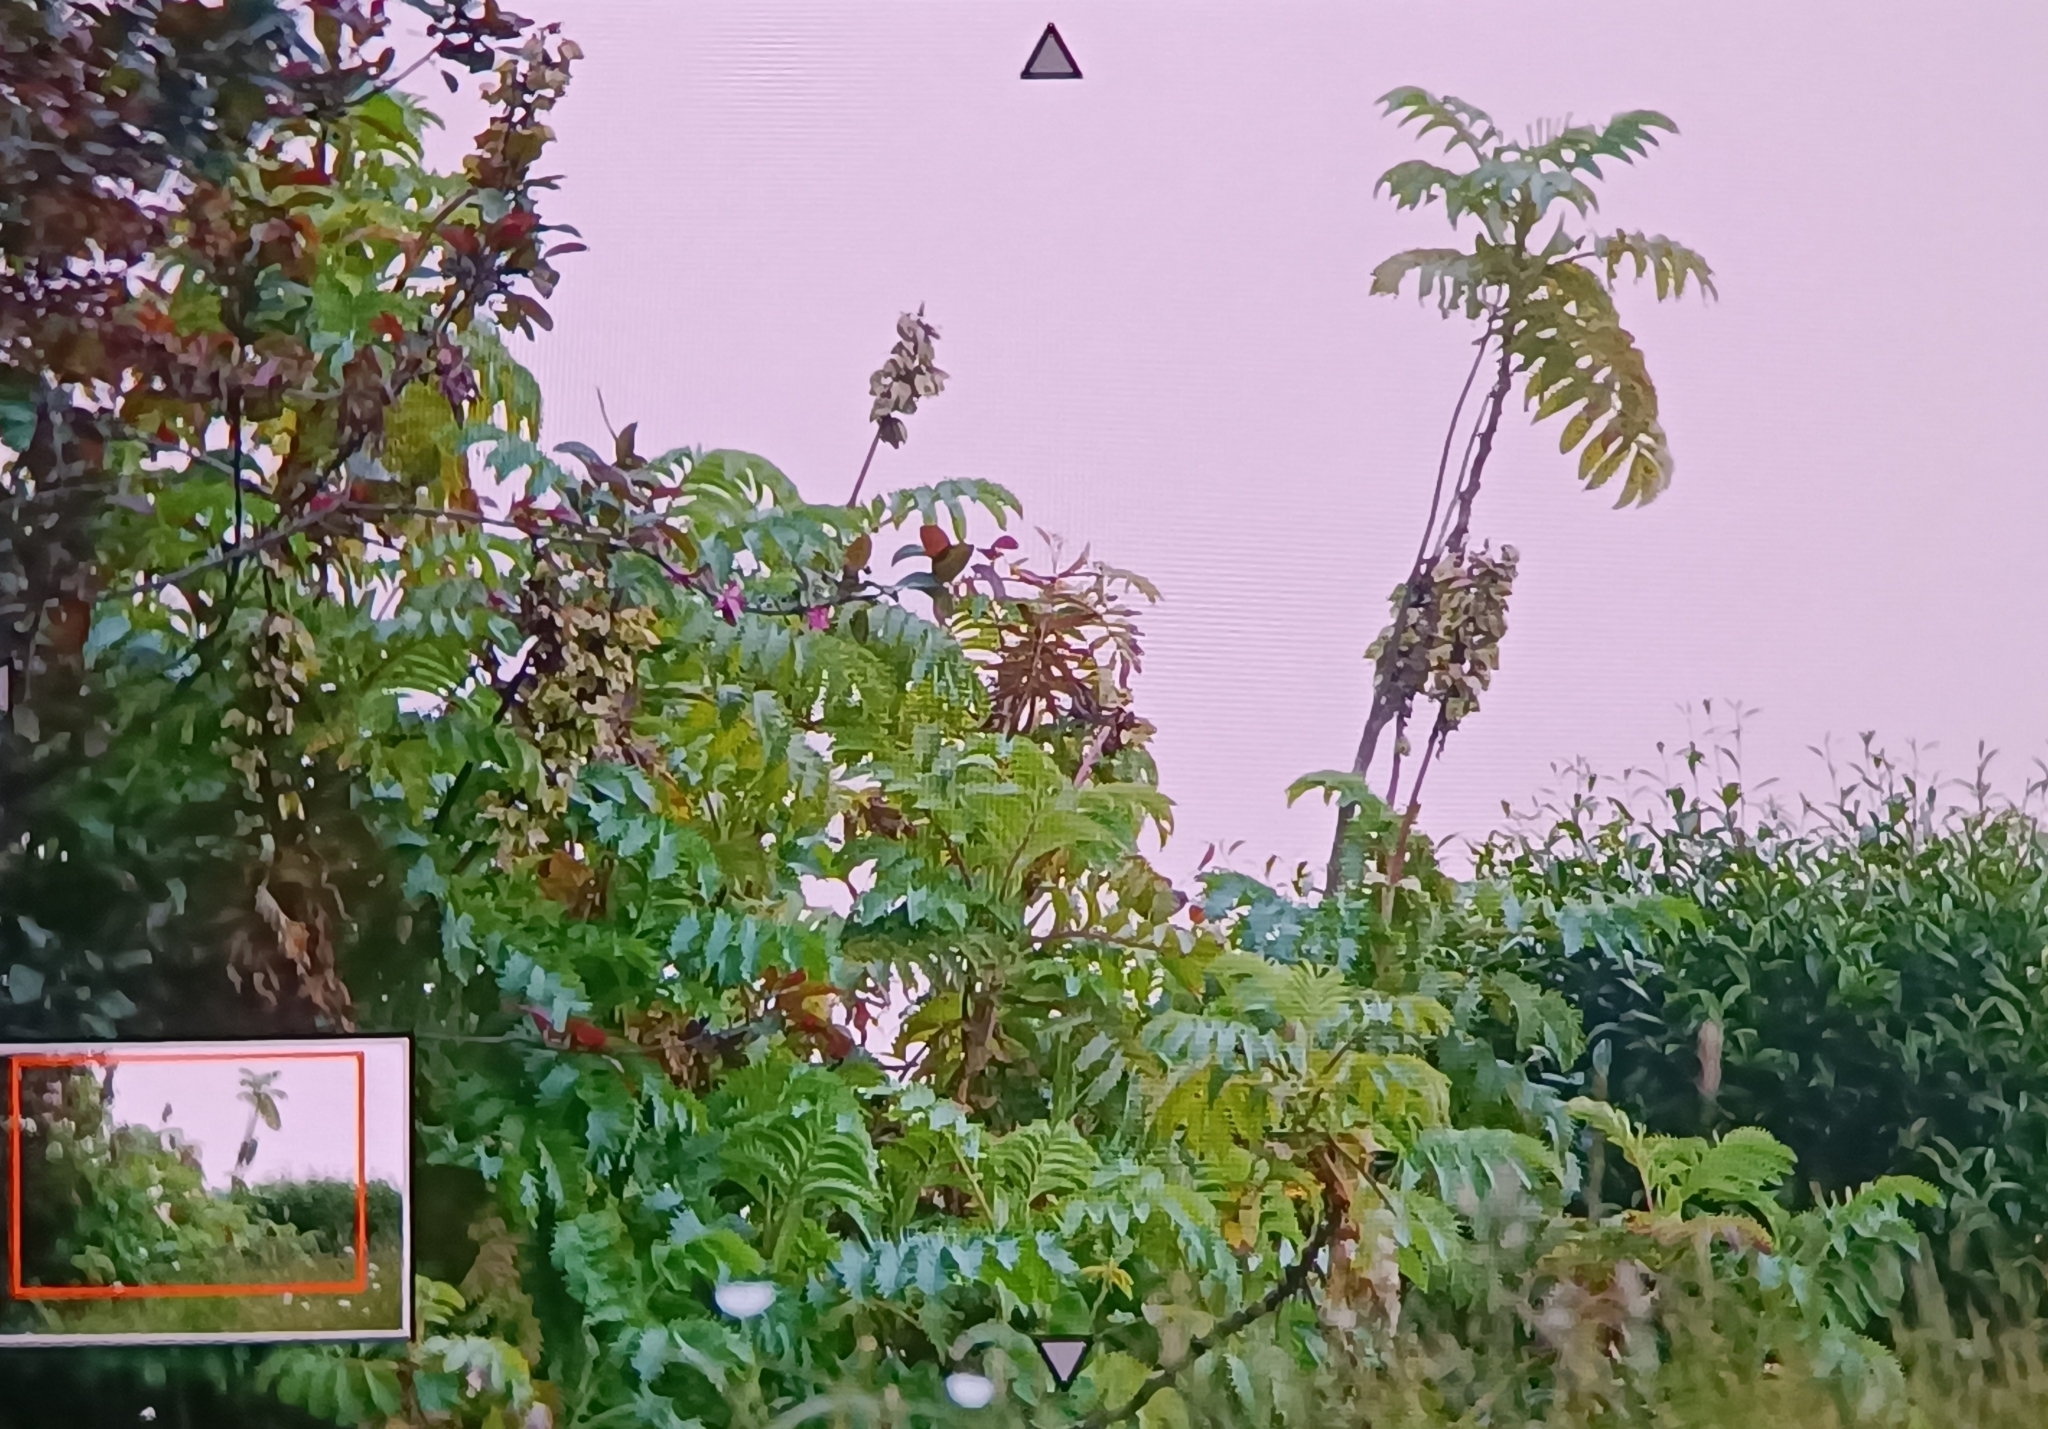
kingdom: Plantae
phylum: Tracheophyta
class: Magnoliopsida
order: Geraniales
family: Melianthaceae
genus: Melianthus
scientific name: Melianthus major
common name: Honey-flower
